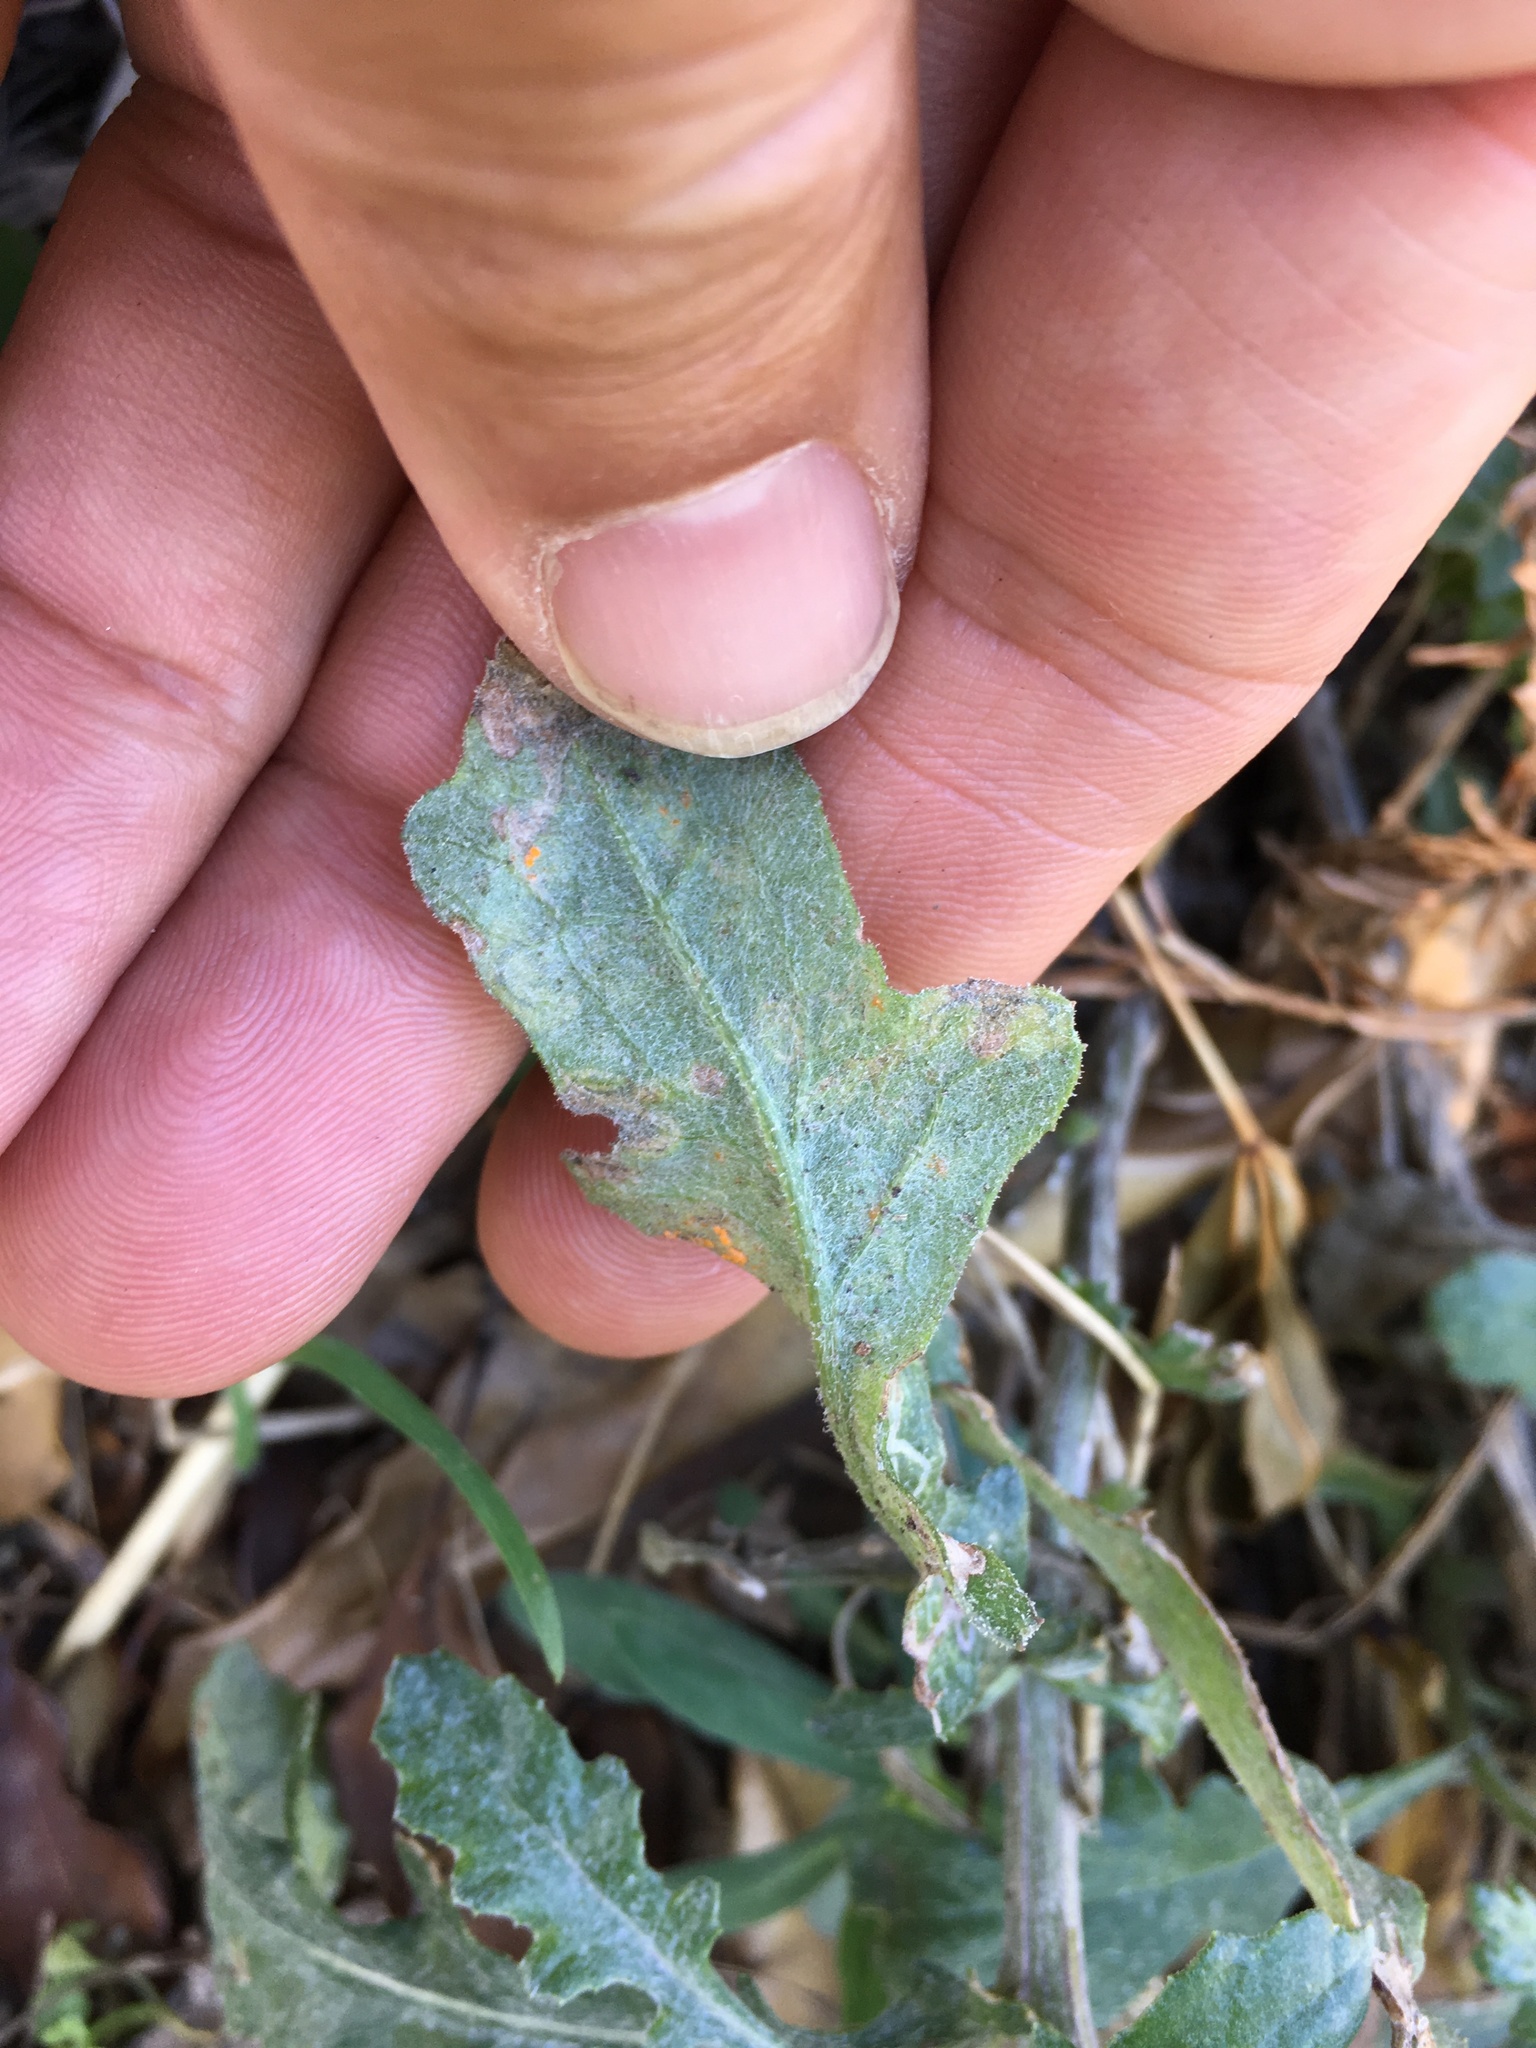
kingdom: Fungi
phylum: Basidiomycota
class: Pucciniomycetes
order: Pucciniales
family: Coleosporiaceae
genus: Coleosporium
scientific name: Coleosporium tussilaginis
